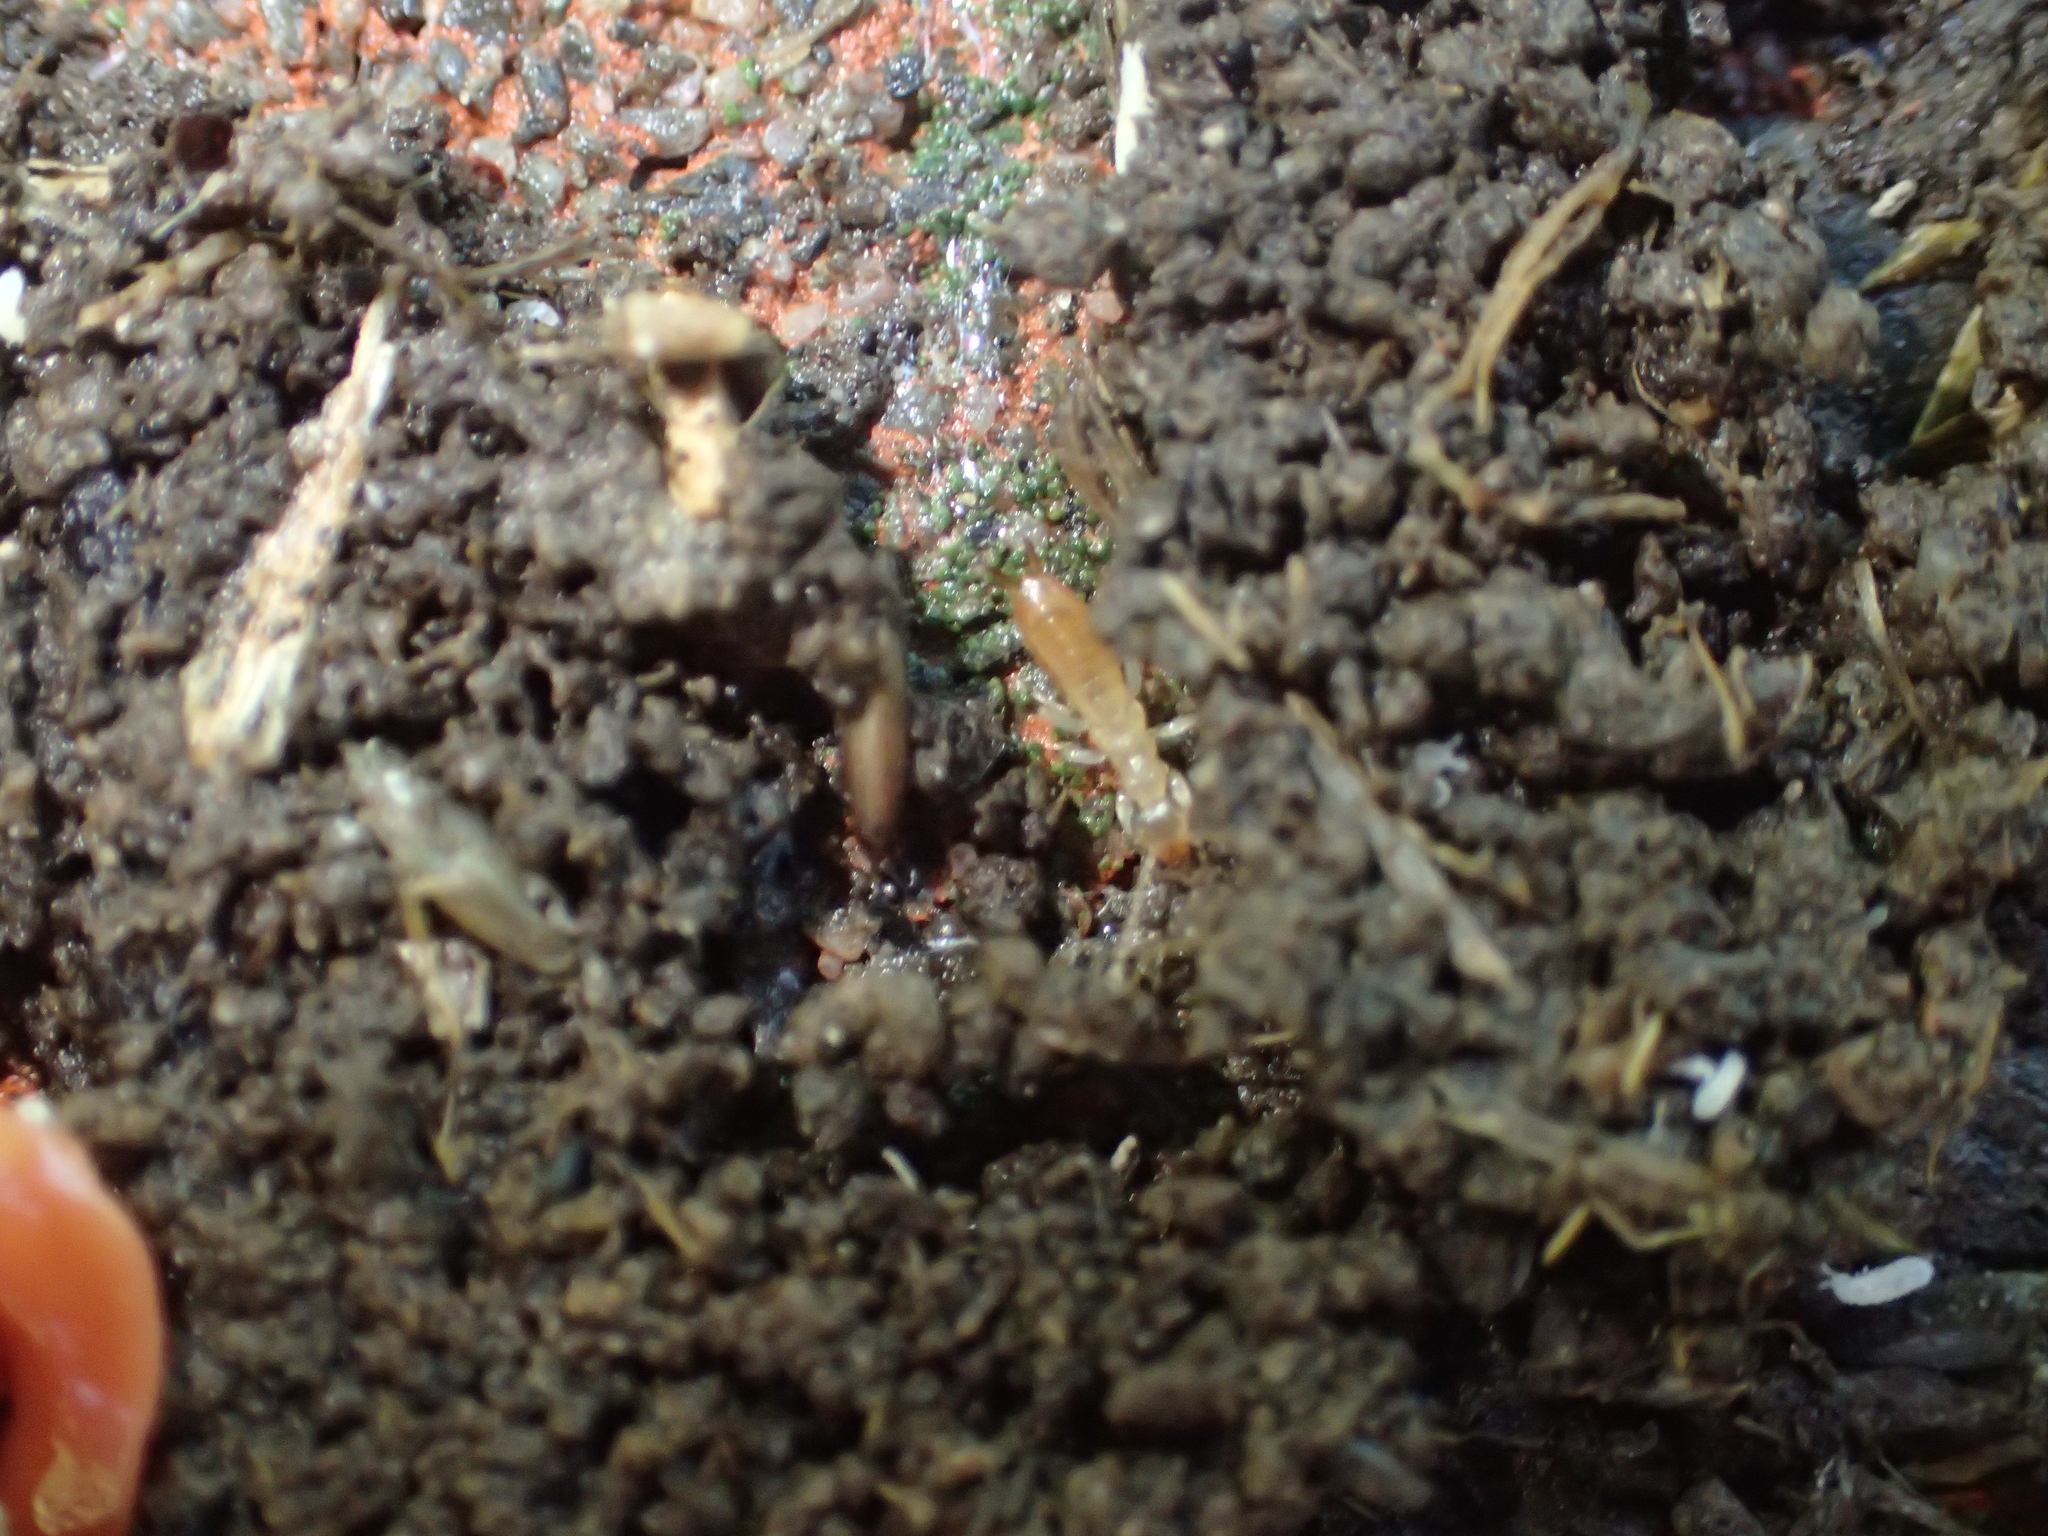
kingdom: Animalia
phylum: Arthropoda
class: Insecta
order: Dermaptera
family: Labiduridae
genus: Labidura
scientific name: Labidura riparia
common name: Striped earwig
